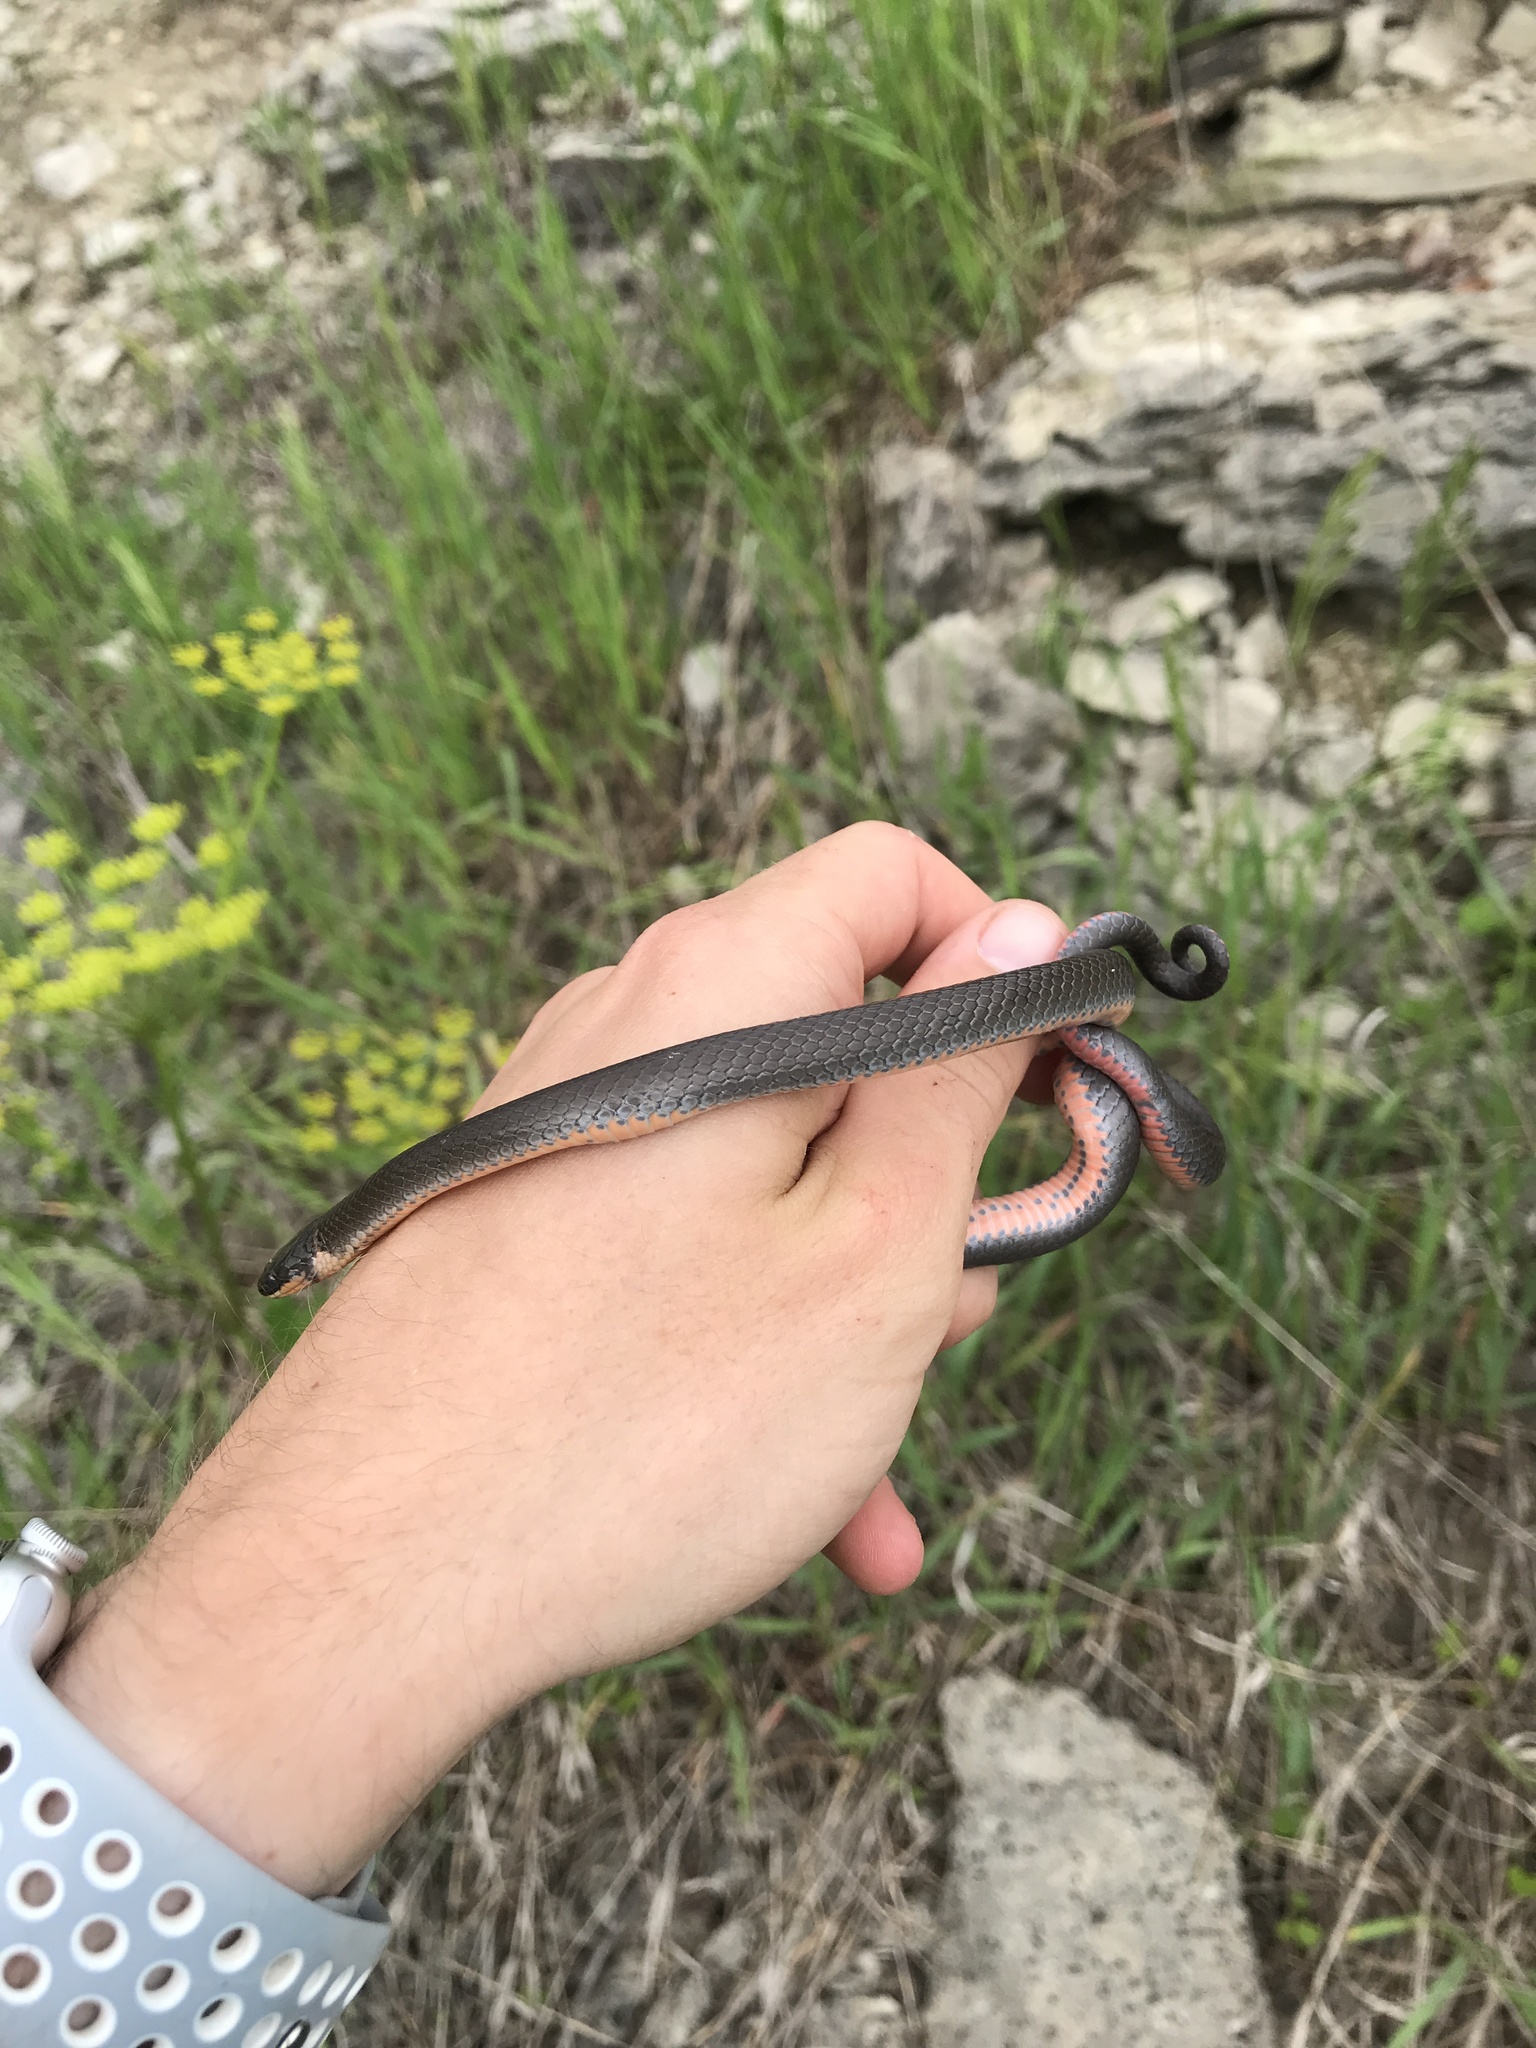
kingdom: Animalia
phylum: Chordata
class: Squamata
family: Colubridae
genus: Diadophis
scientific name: Diadophis punctatus
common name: Ringneck snake
